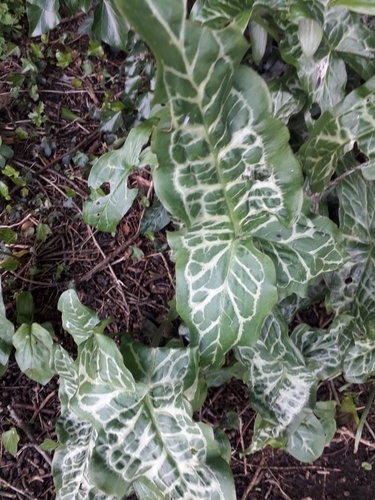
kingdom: Plantae
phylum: Tracheophyta
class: Liliopsida
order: Alismatales
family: Araceae
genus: Arum
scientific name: Arum italicum
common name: Italian lords-and-ladies
